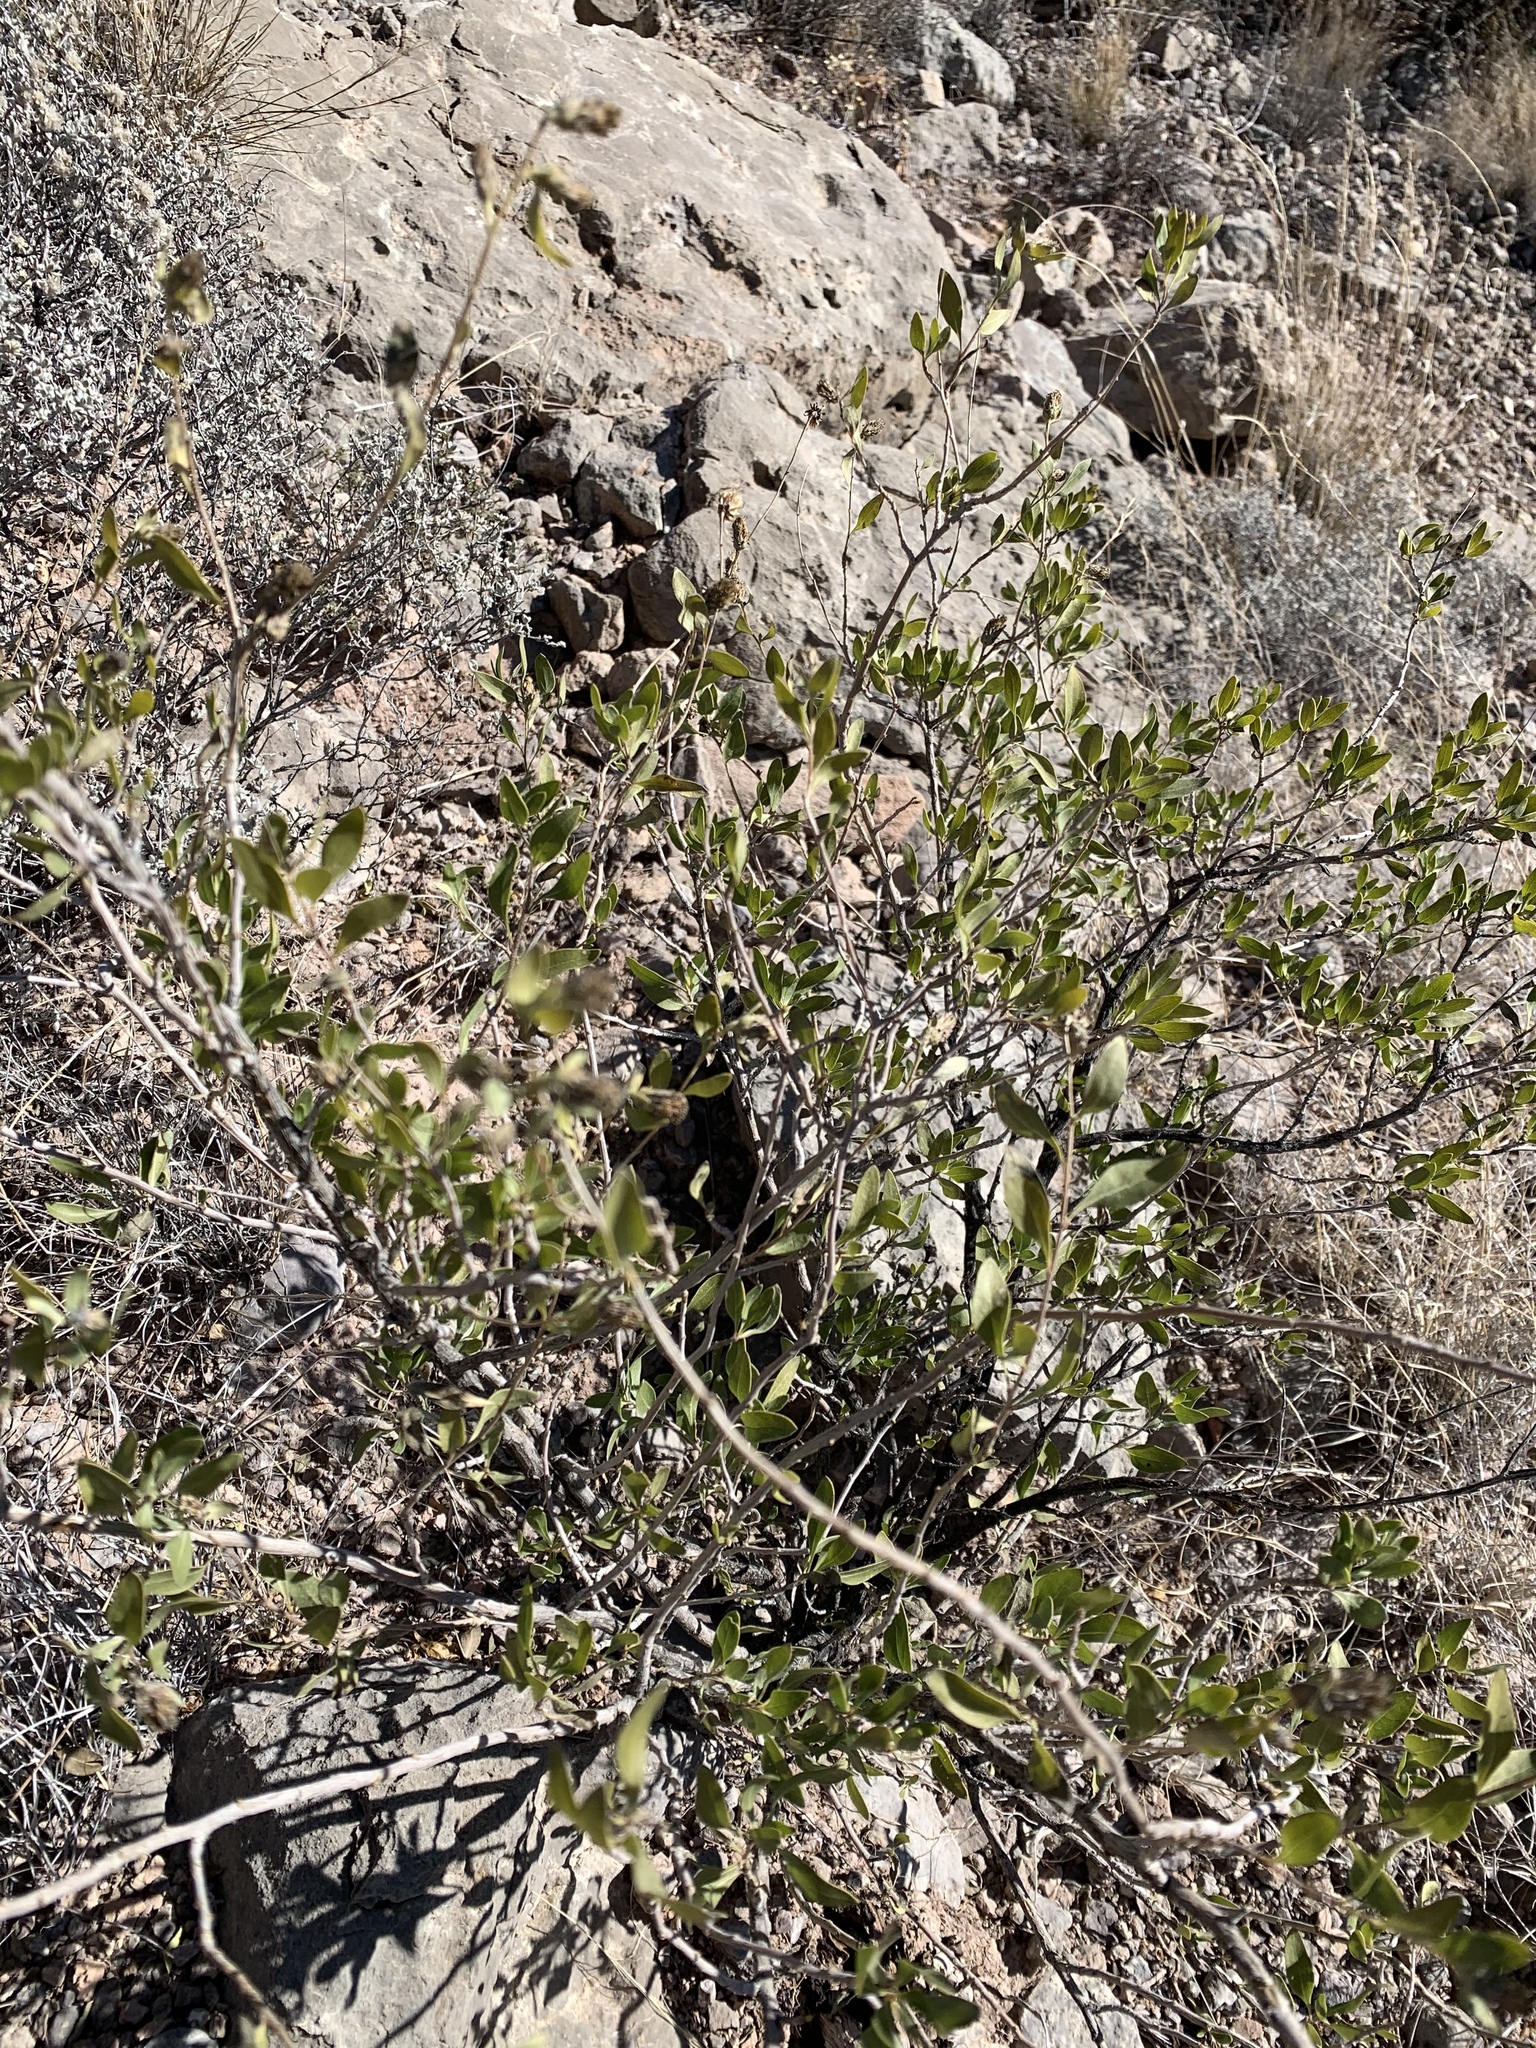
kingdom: Plantae
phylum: Tracheophyta
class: Magnoliopsida
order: Asterales
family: Asteraceae
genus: Flourensia
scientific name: Flourensia cernua
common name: Varnishbush
